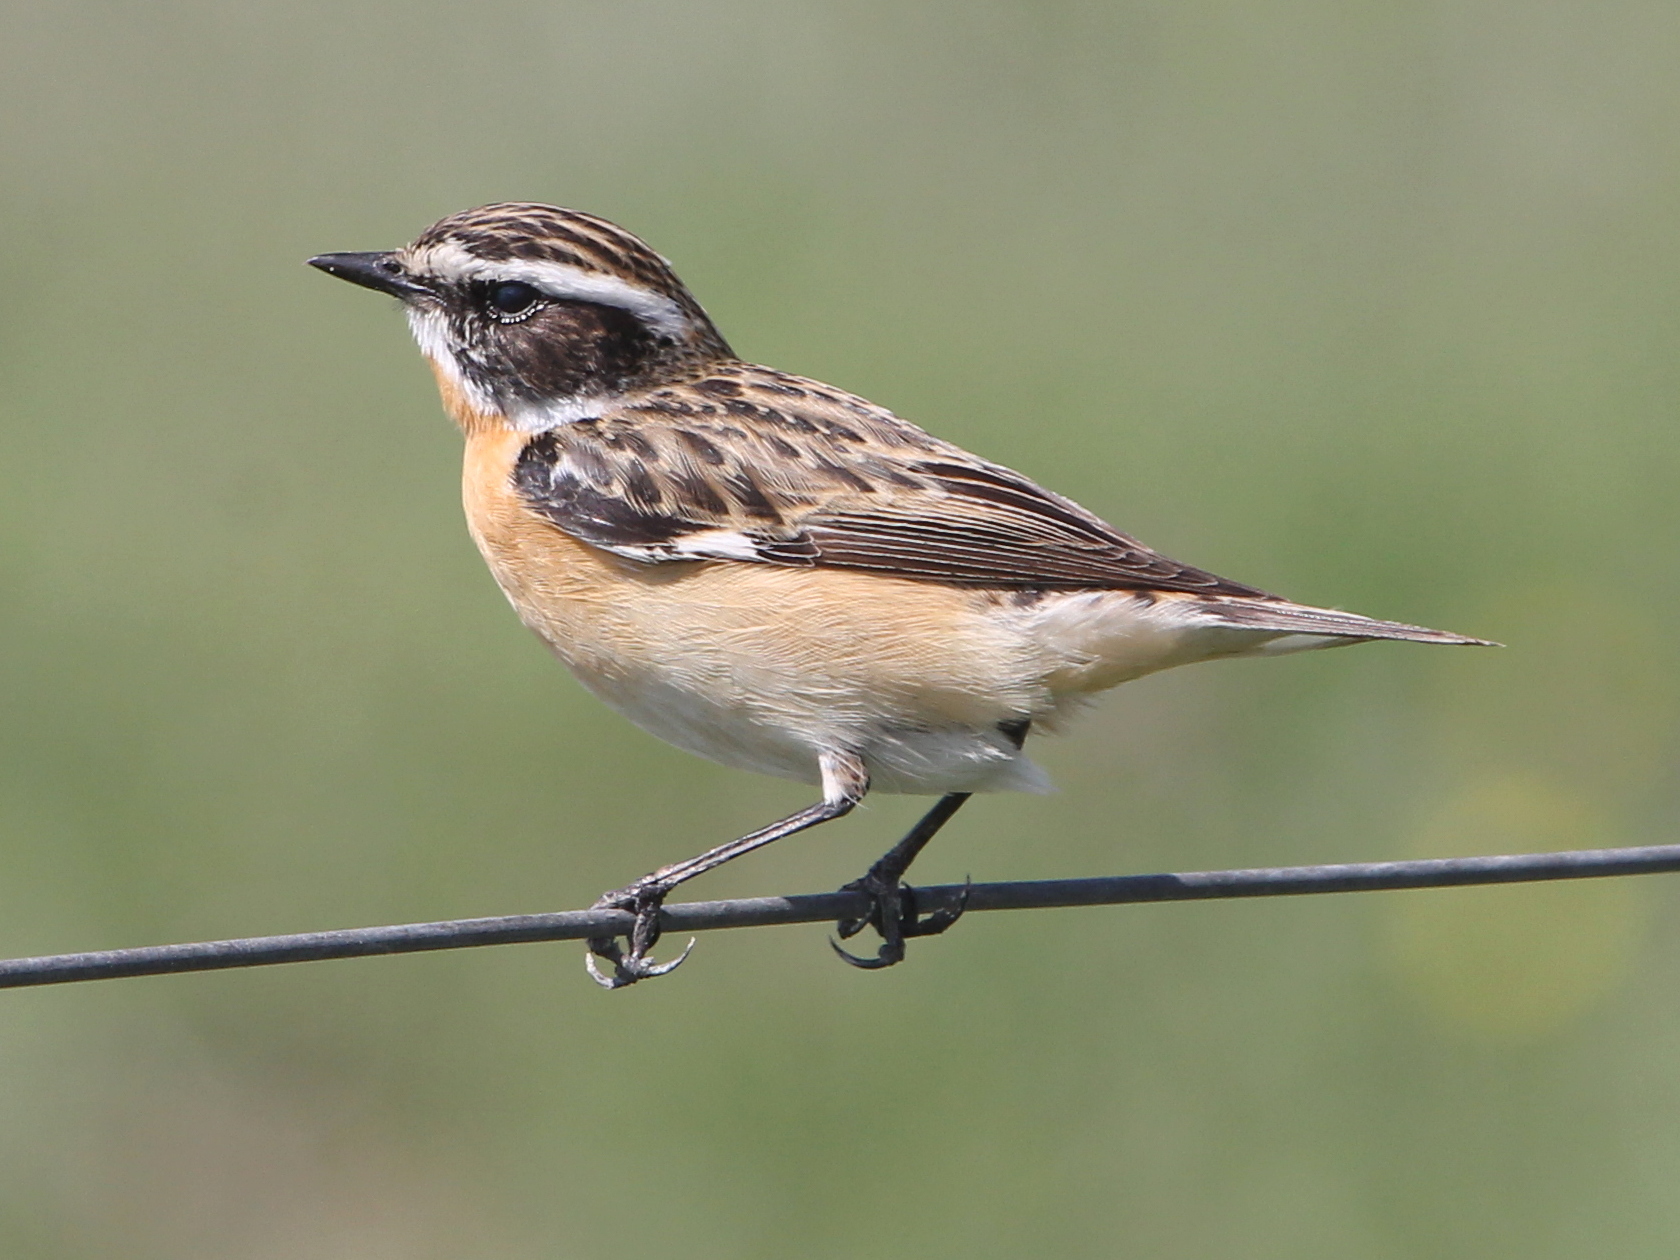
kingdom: Animalia
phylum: Chordata
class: Aves
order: Passeriformes
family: Muscicapidae
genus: Saxicola
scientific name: Saxicola rubetra
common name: Whinchat
